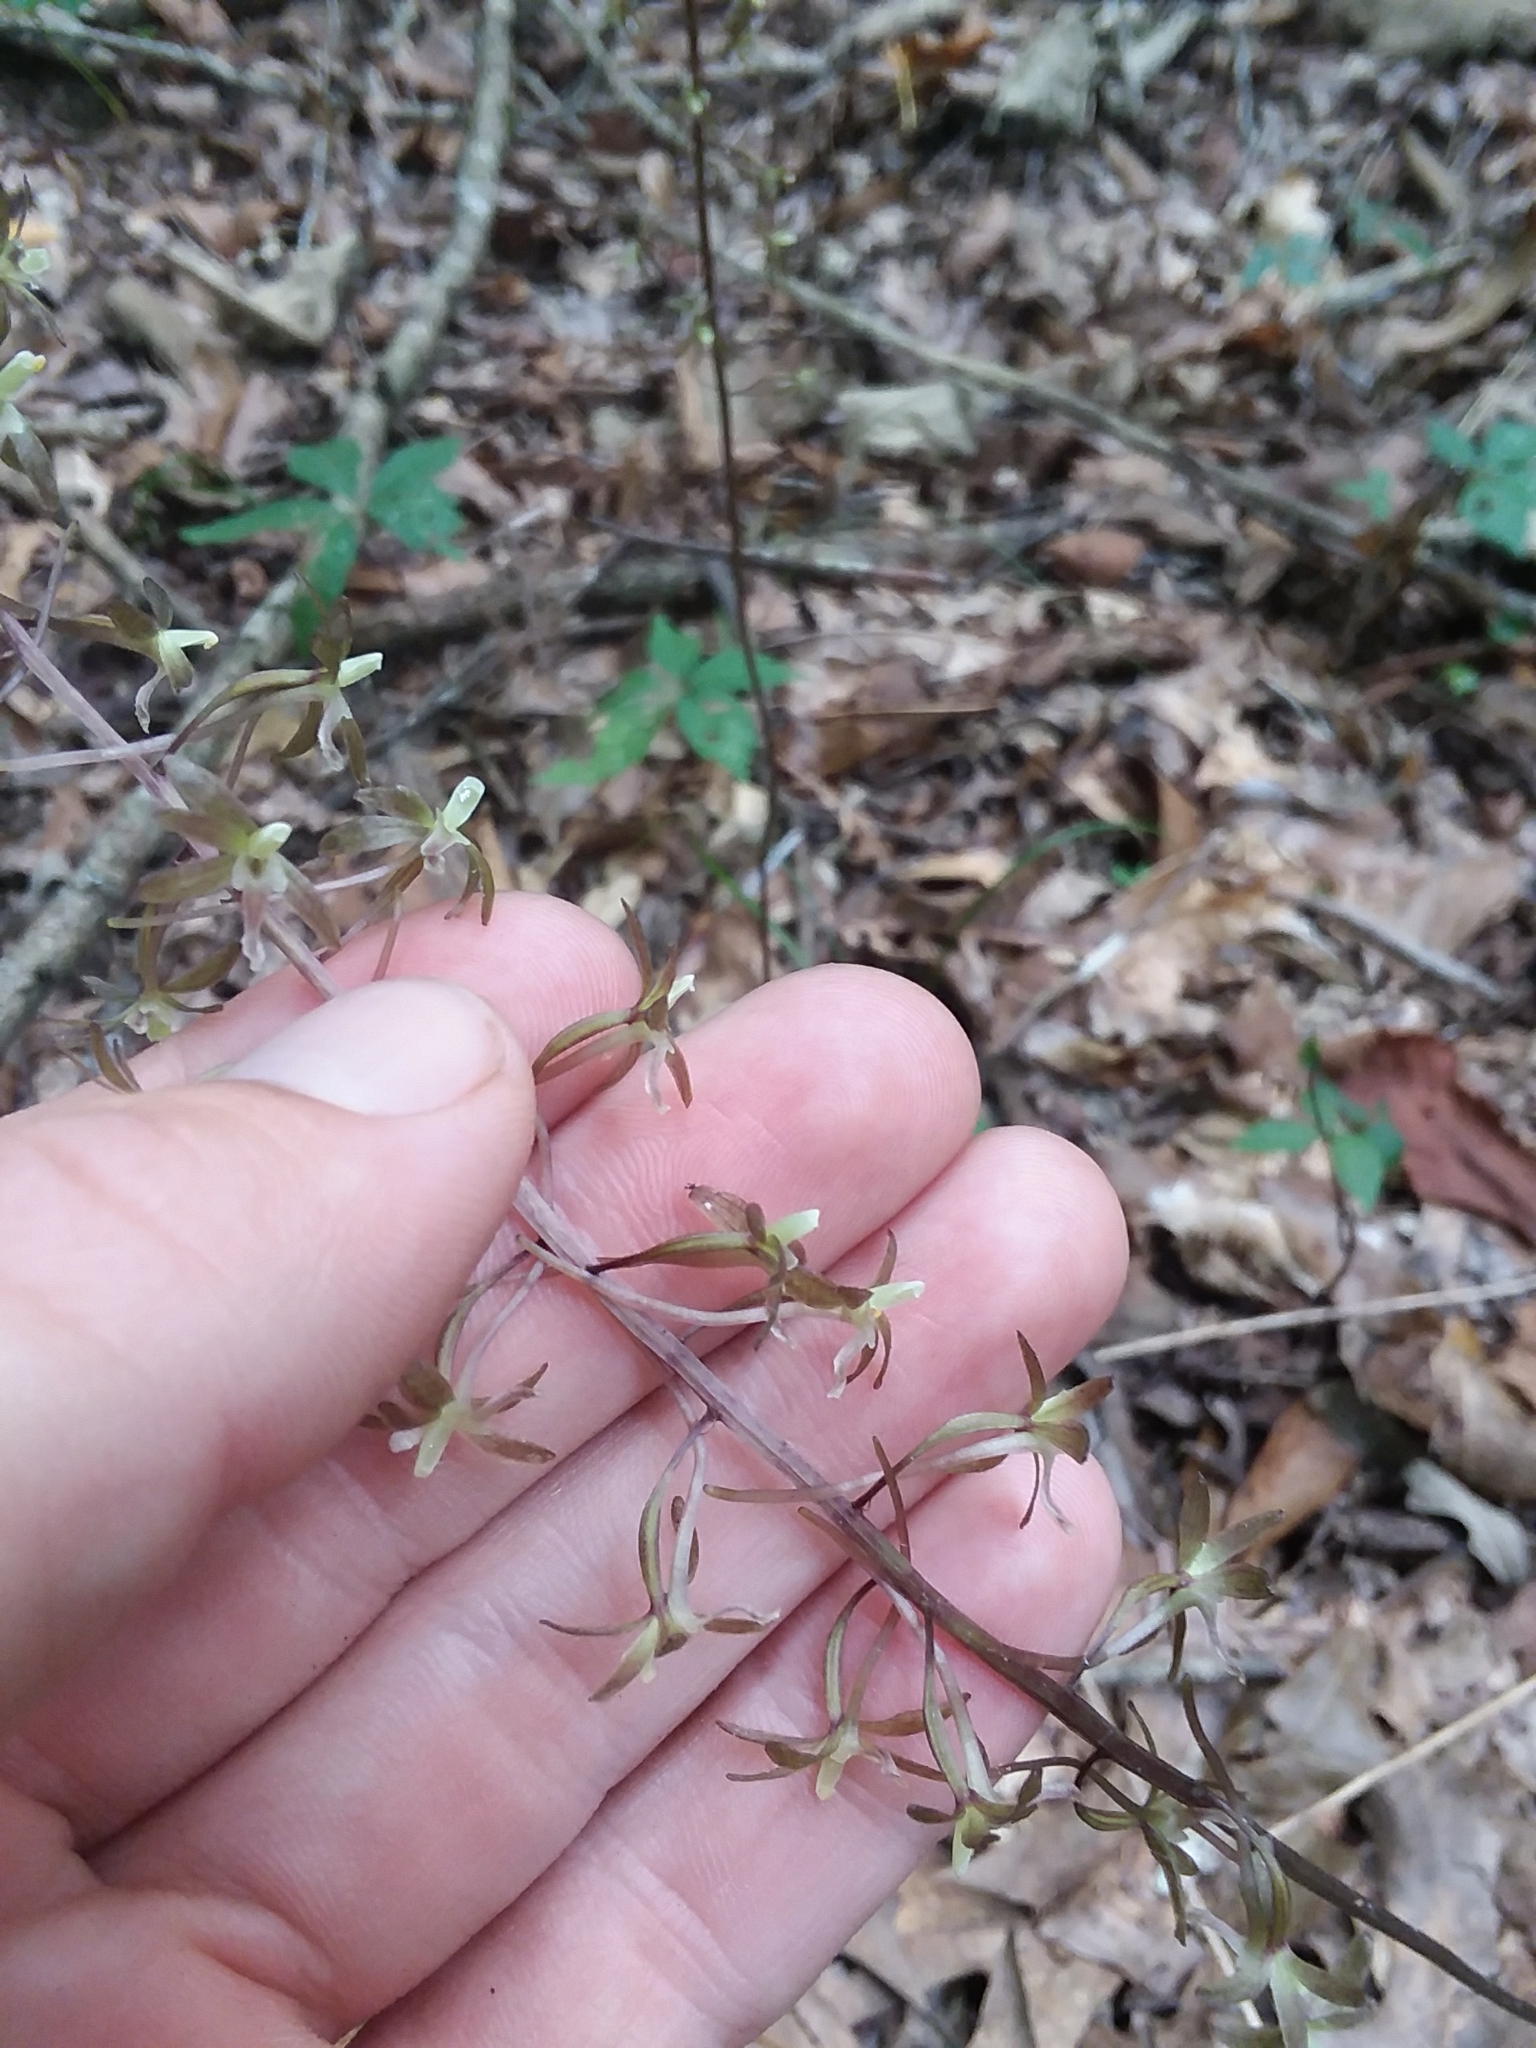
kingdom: Plantae
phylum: Tracheophyta
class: Liliopsida
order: Asparagales
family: Orchidaceae
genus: Tipularia
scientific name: Tipularia discolor
